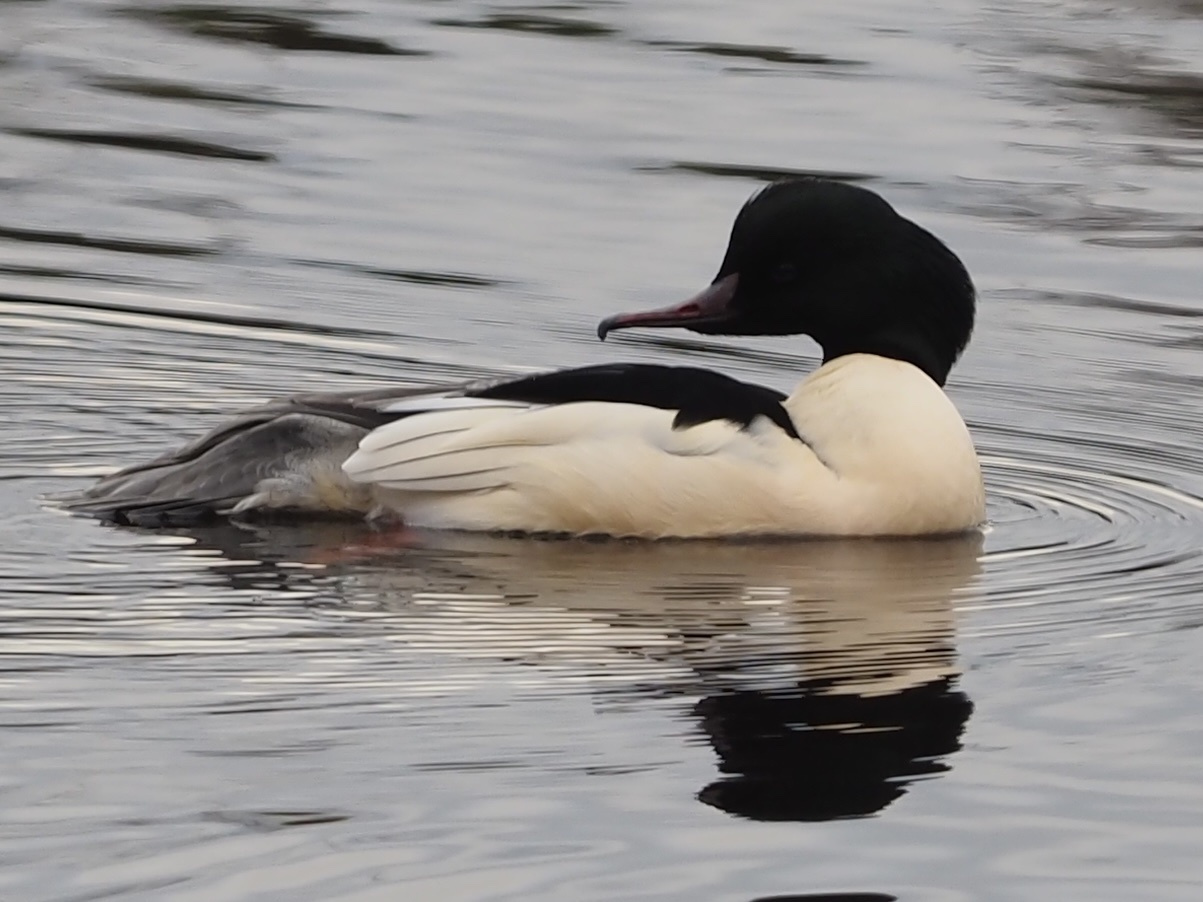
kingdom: Animalia
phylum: Chordata
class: Aves
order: Anseriformes
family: Anatidae
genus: Mergus
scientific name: Mergus merganser
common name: Common merganser
